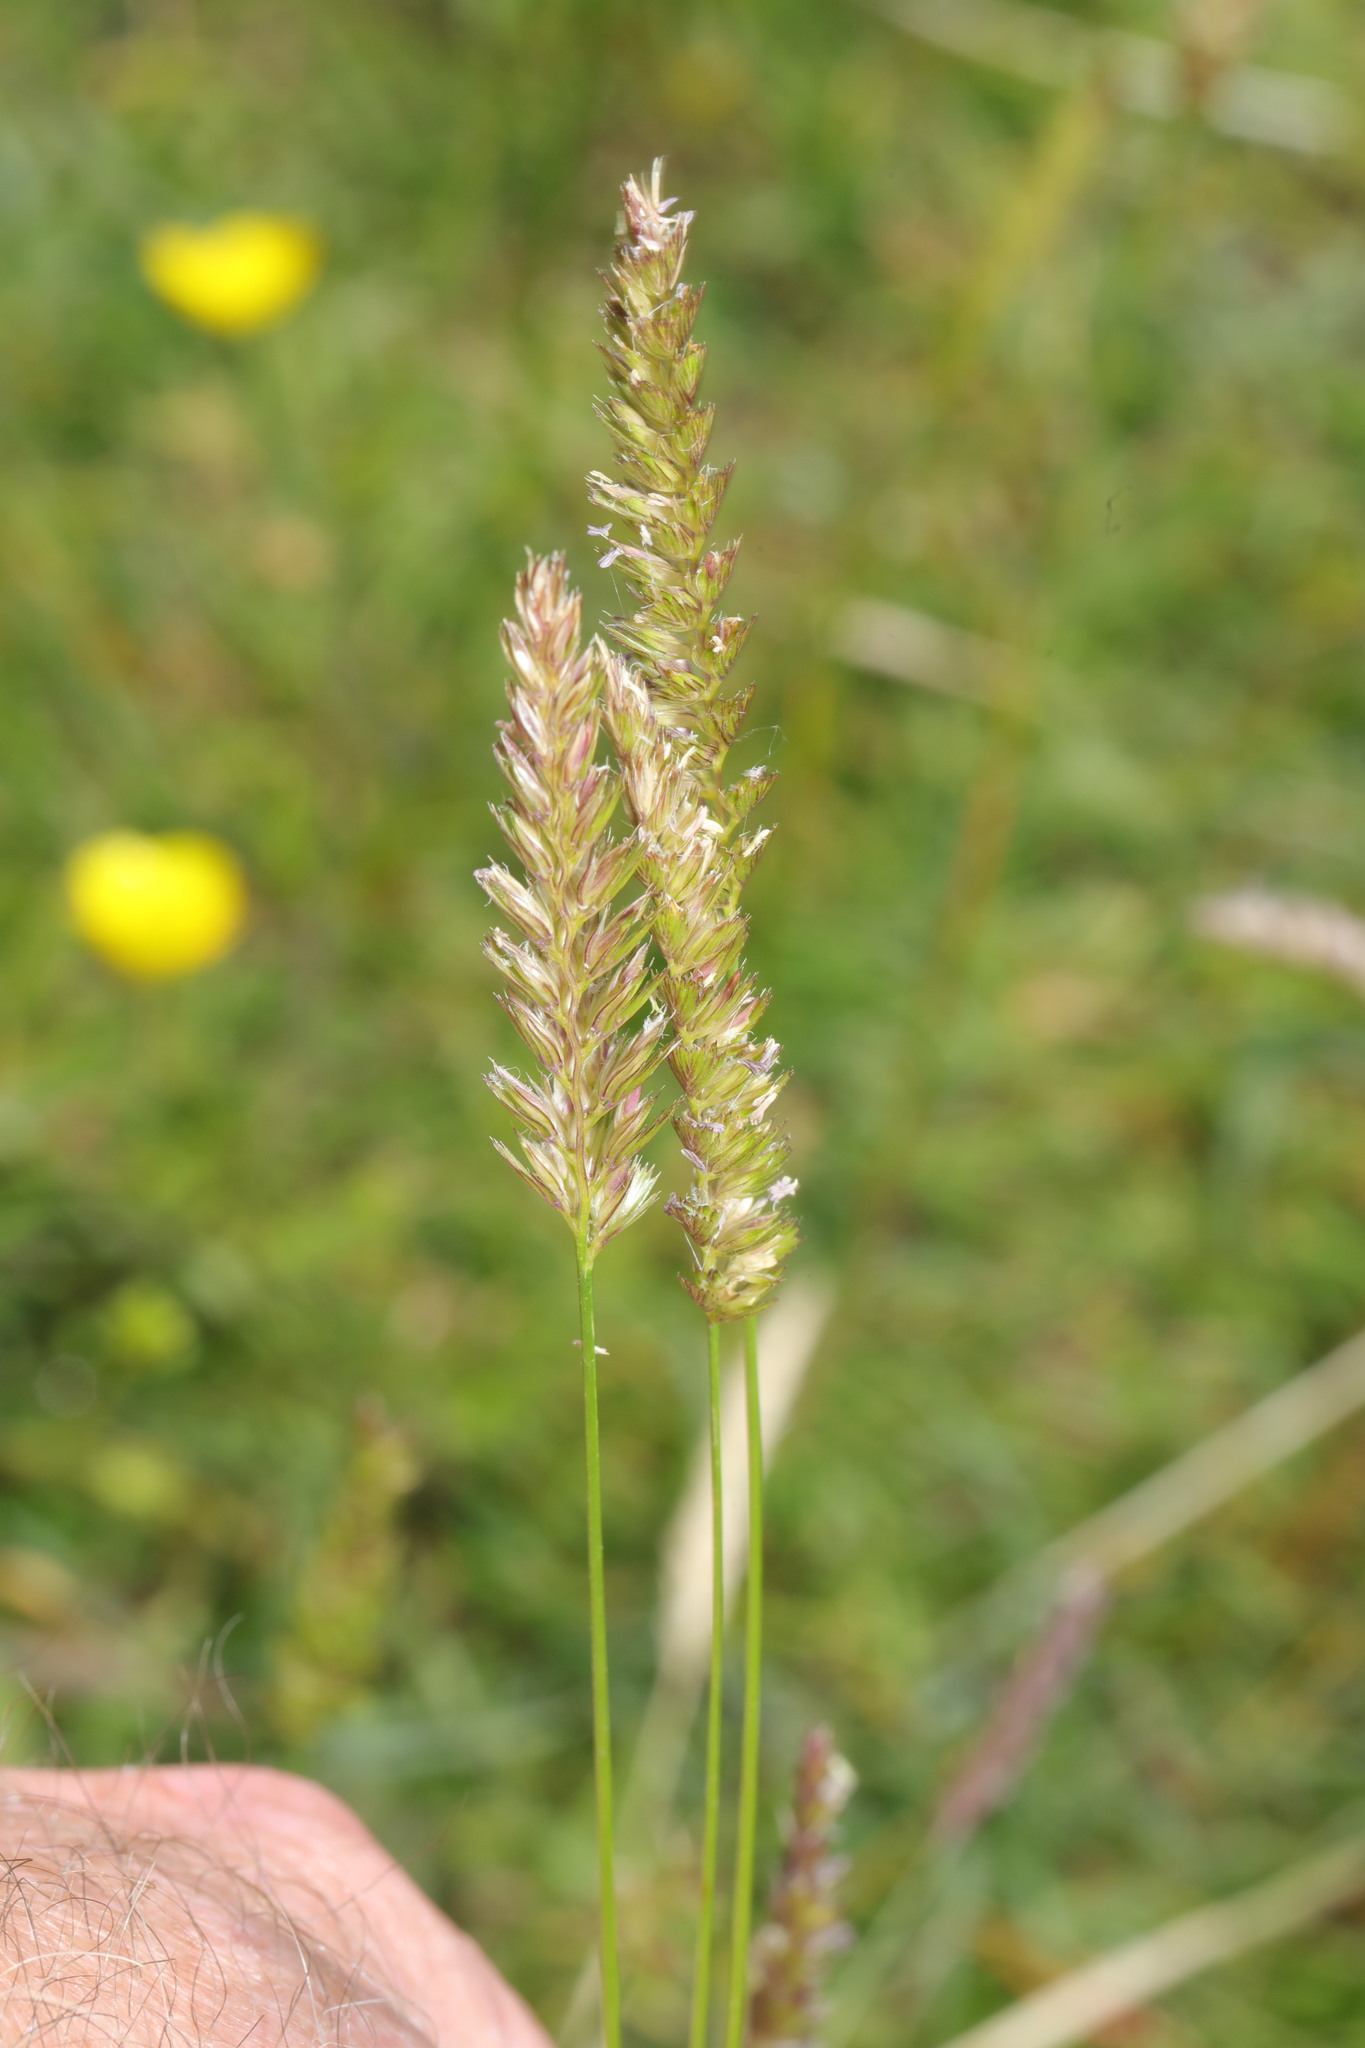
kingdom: Plantae
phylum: Tracheophyta
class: Liliopsida
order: Poales
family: Poaceae
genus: Cynosurus
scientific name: Cynosurus cristatus
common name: Crested dog's-tail
